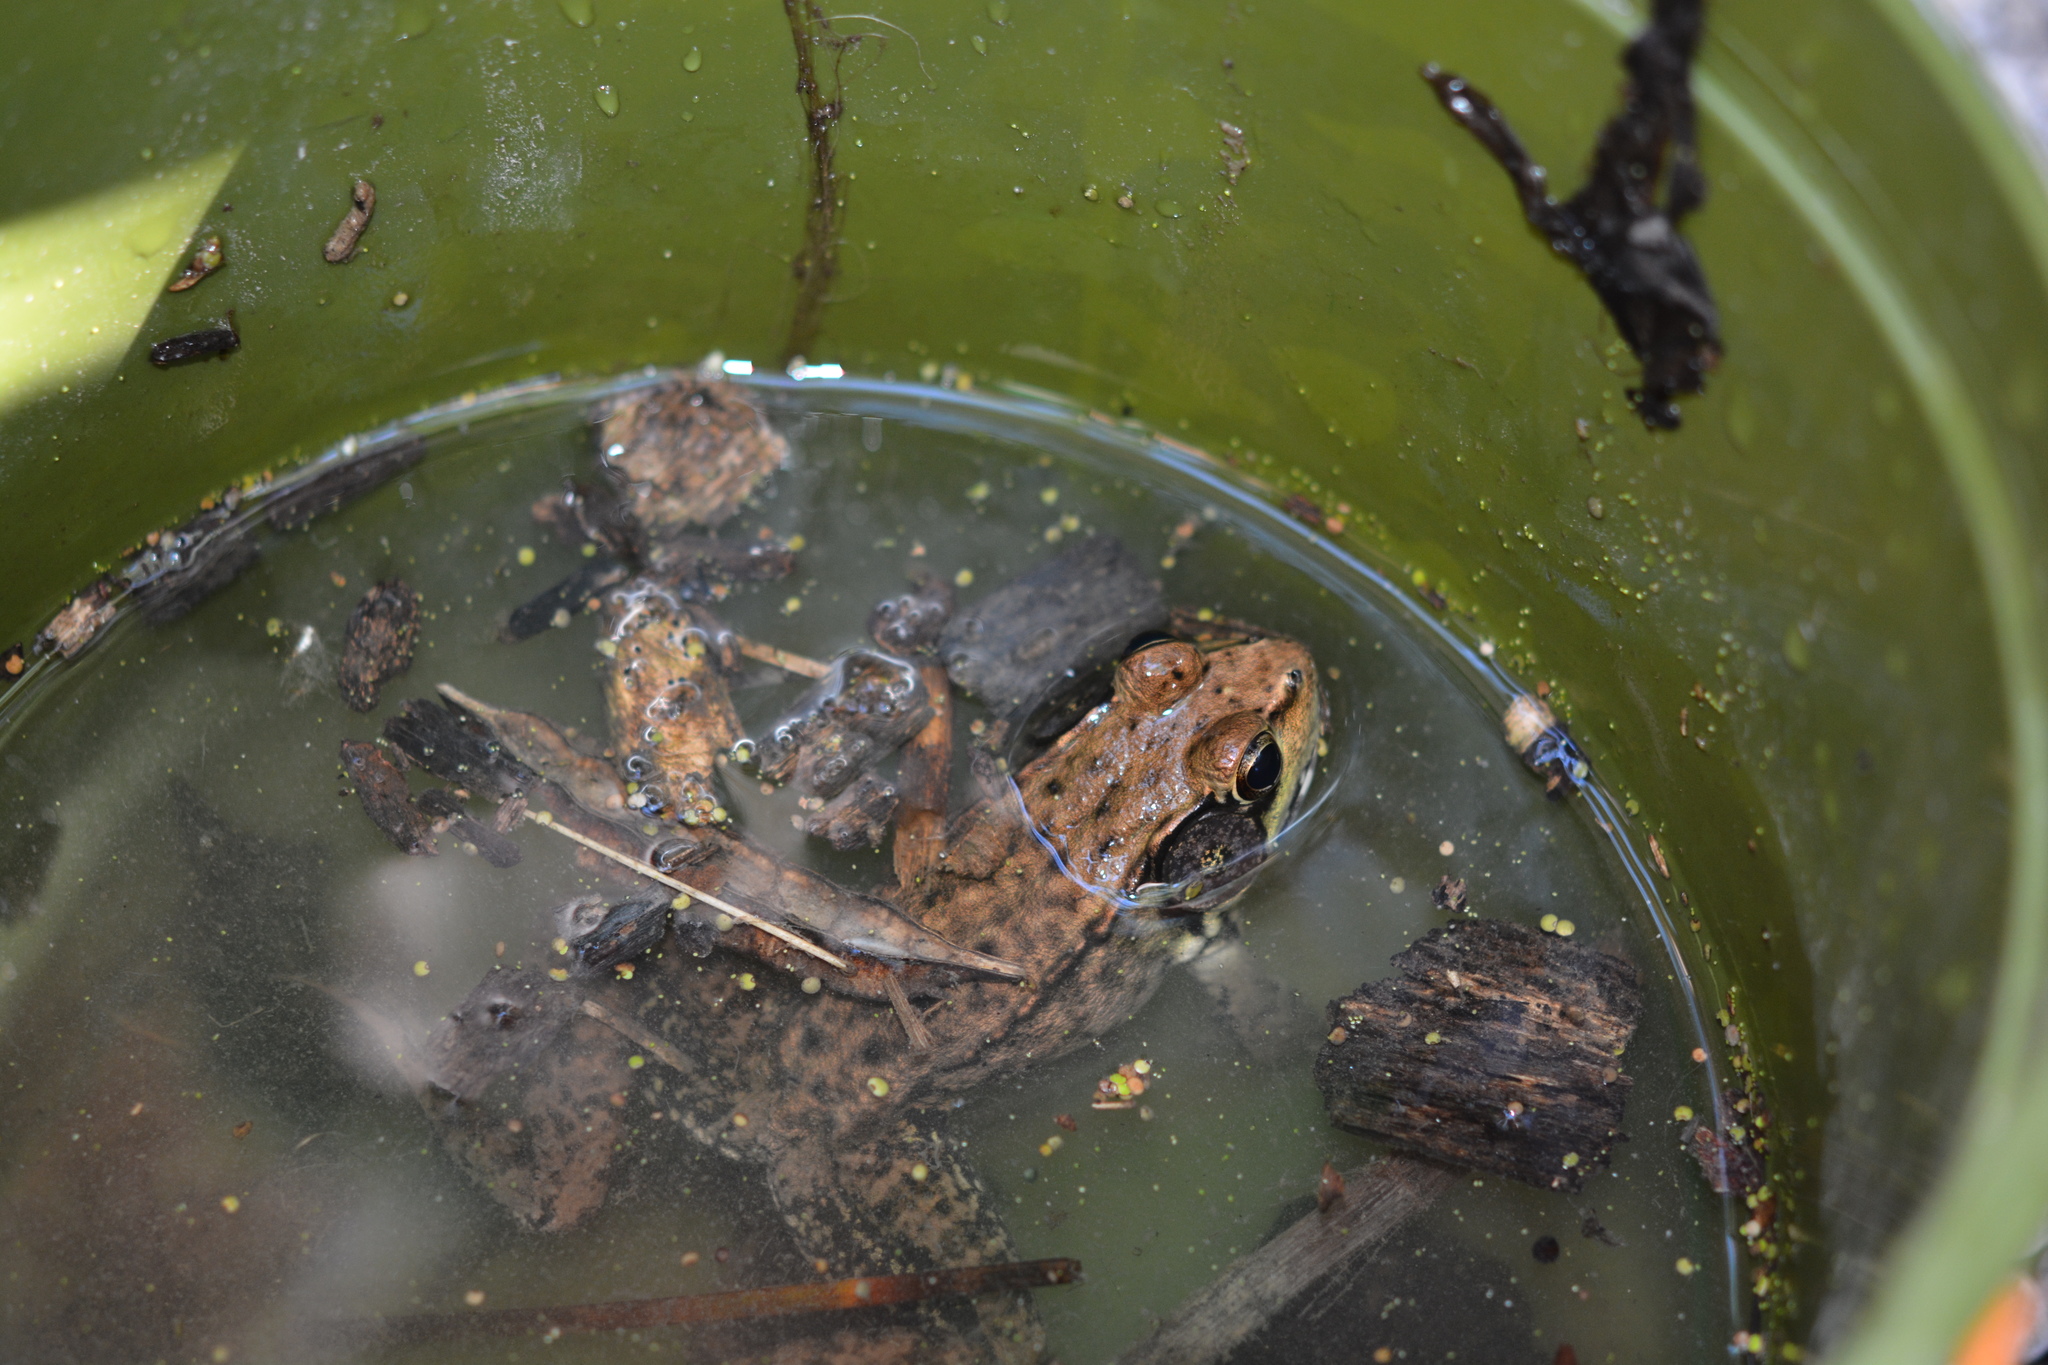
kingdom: Animalia
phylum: Chordata
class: Amphibia
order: Anura
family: Ranidae
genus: Lithobates
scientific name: Lithobates clamitans
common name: Green frog
